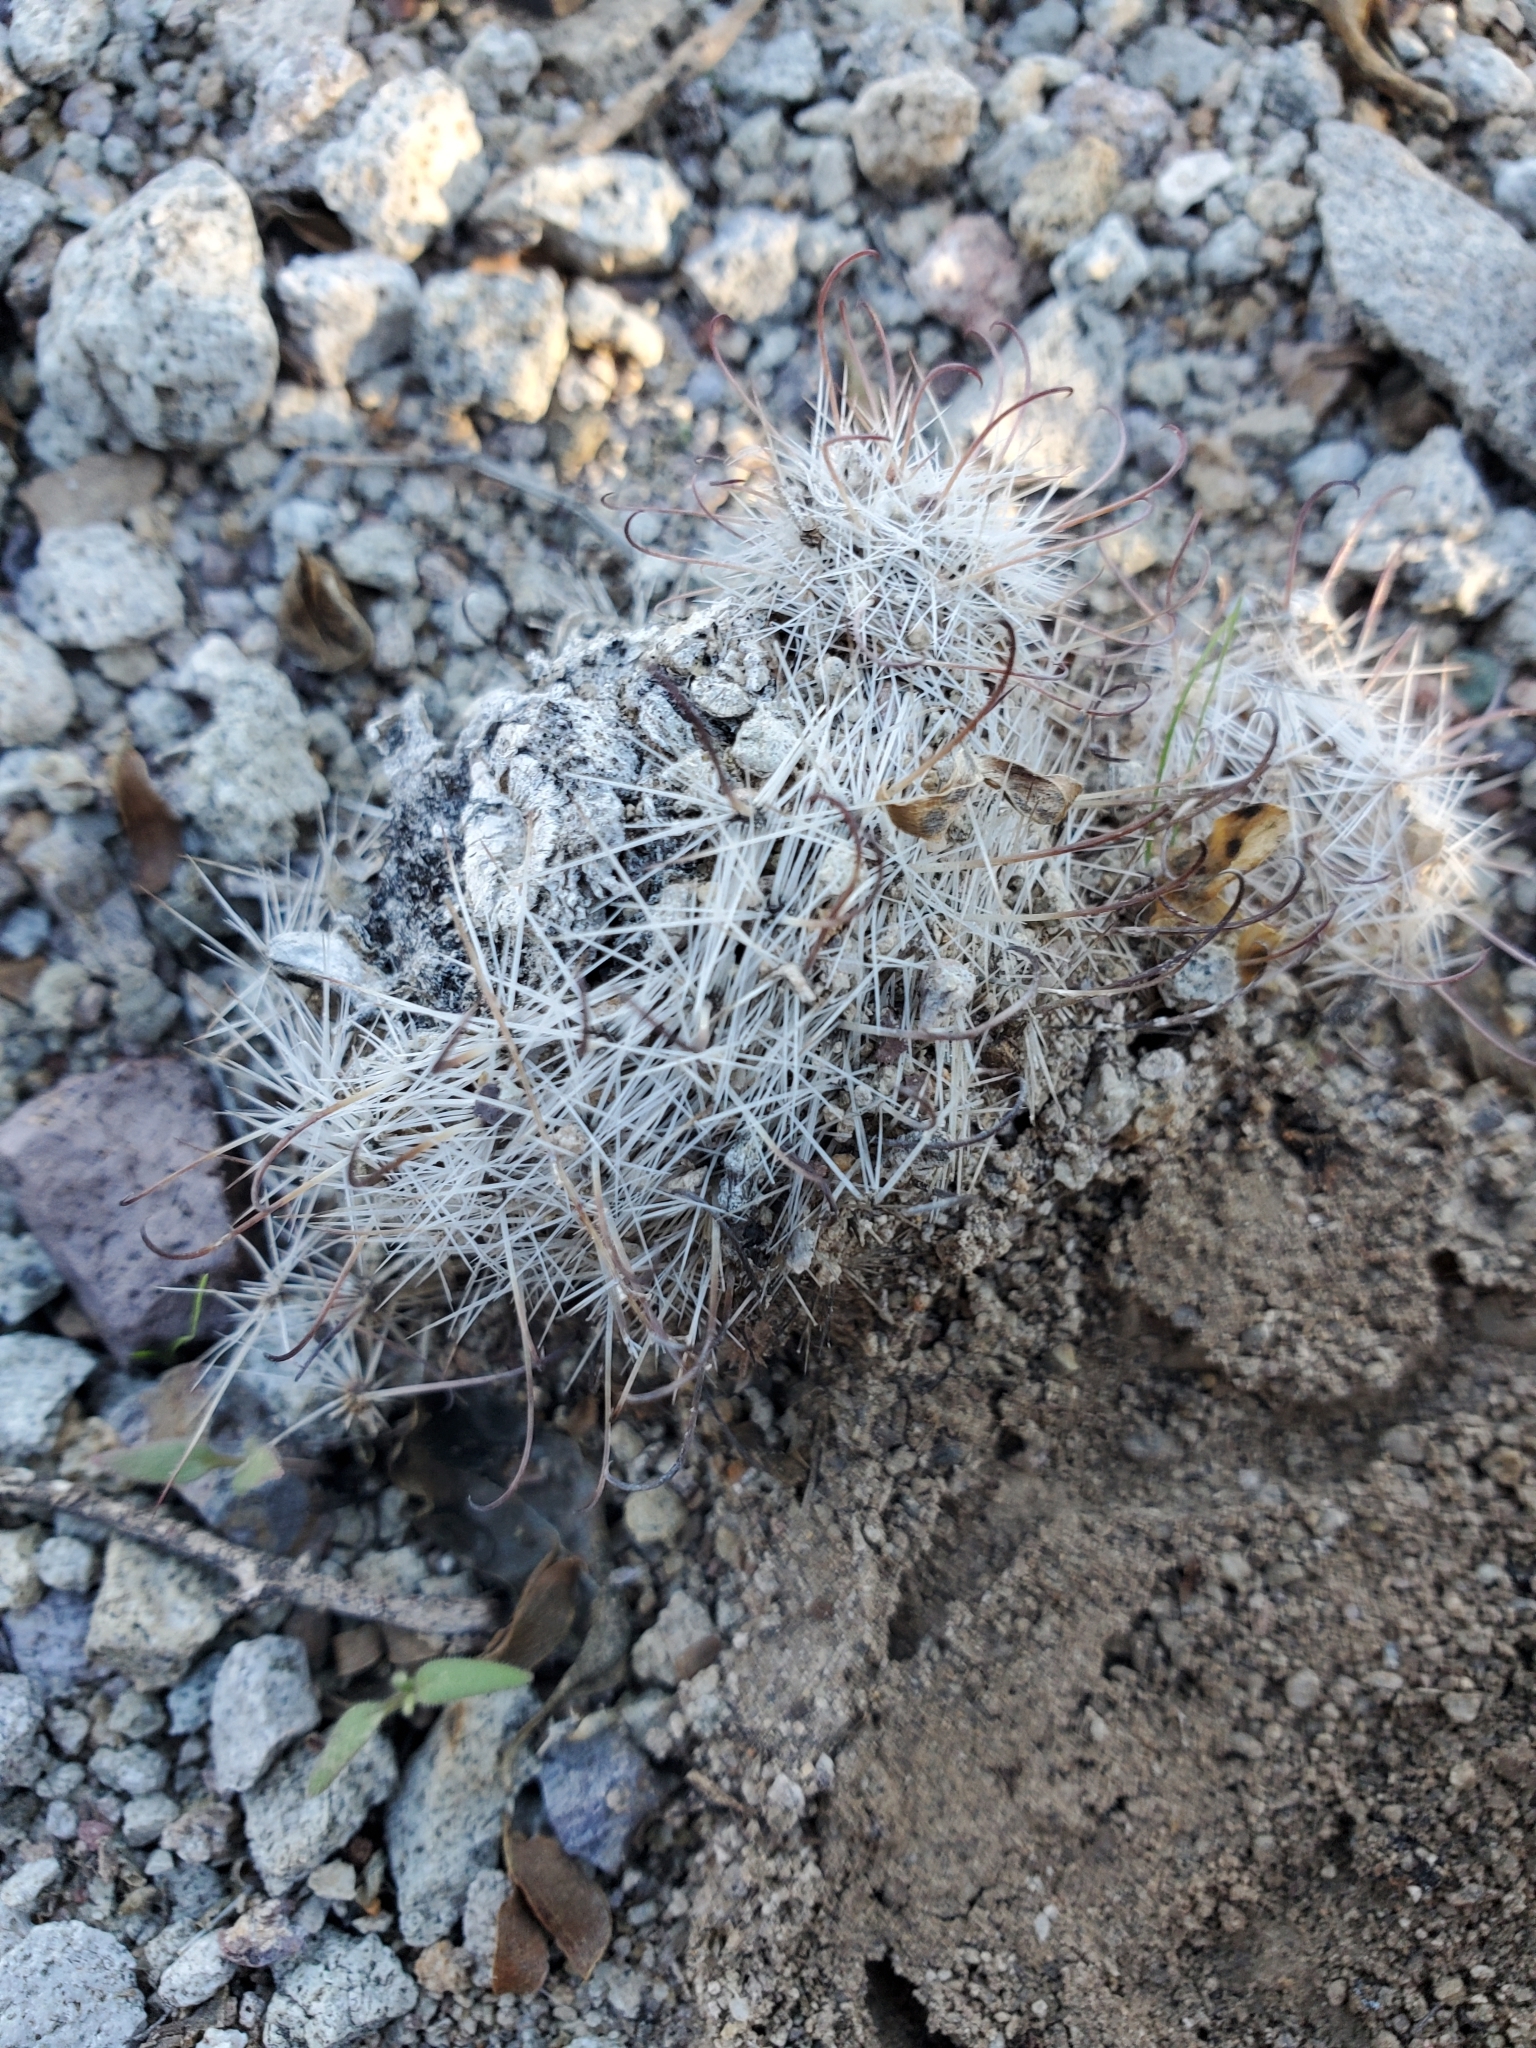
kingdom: Plantae
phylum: Tracheophyta
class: Magnoliopsida
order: Caryophyllales
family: Cactaceae
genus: Cochemiea
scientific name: Cochemiea grahamii
